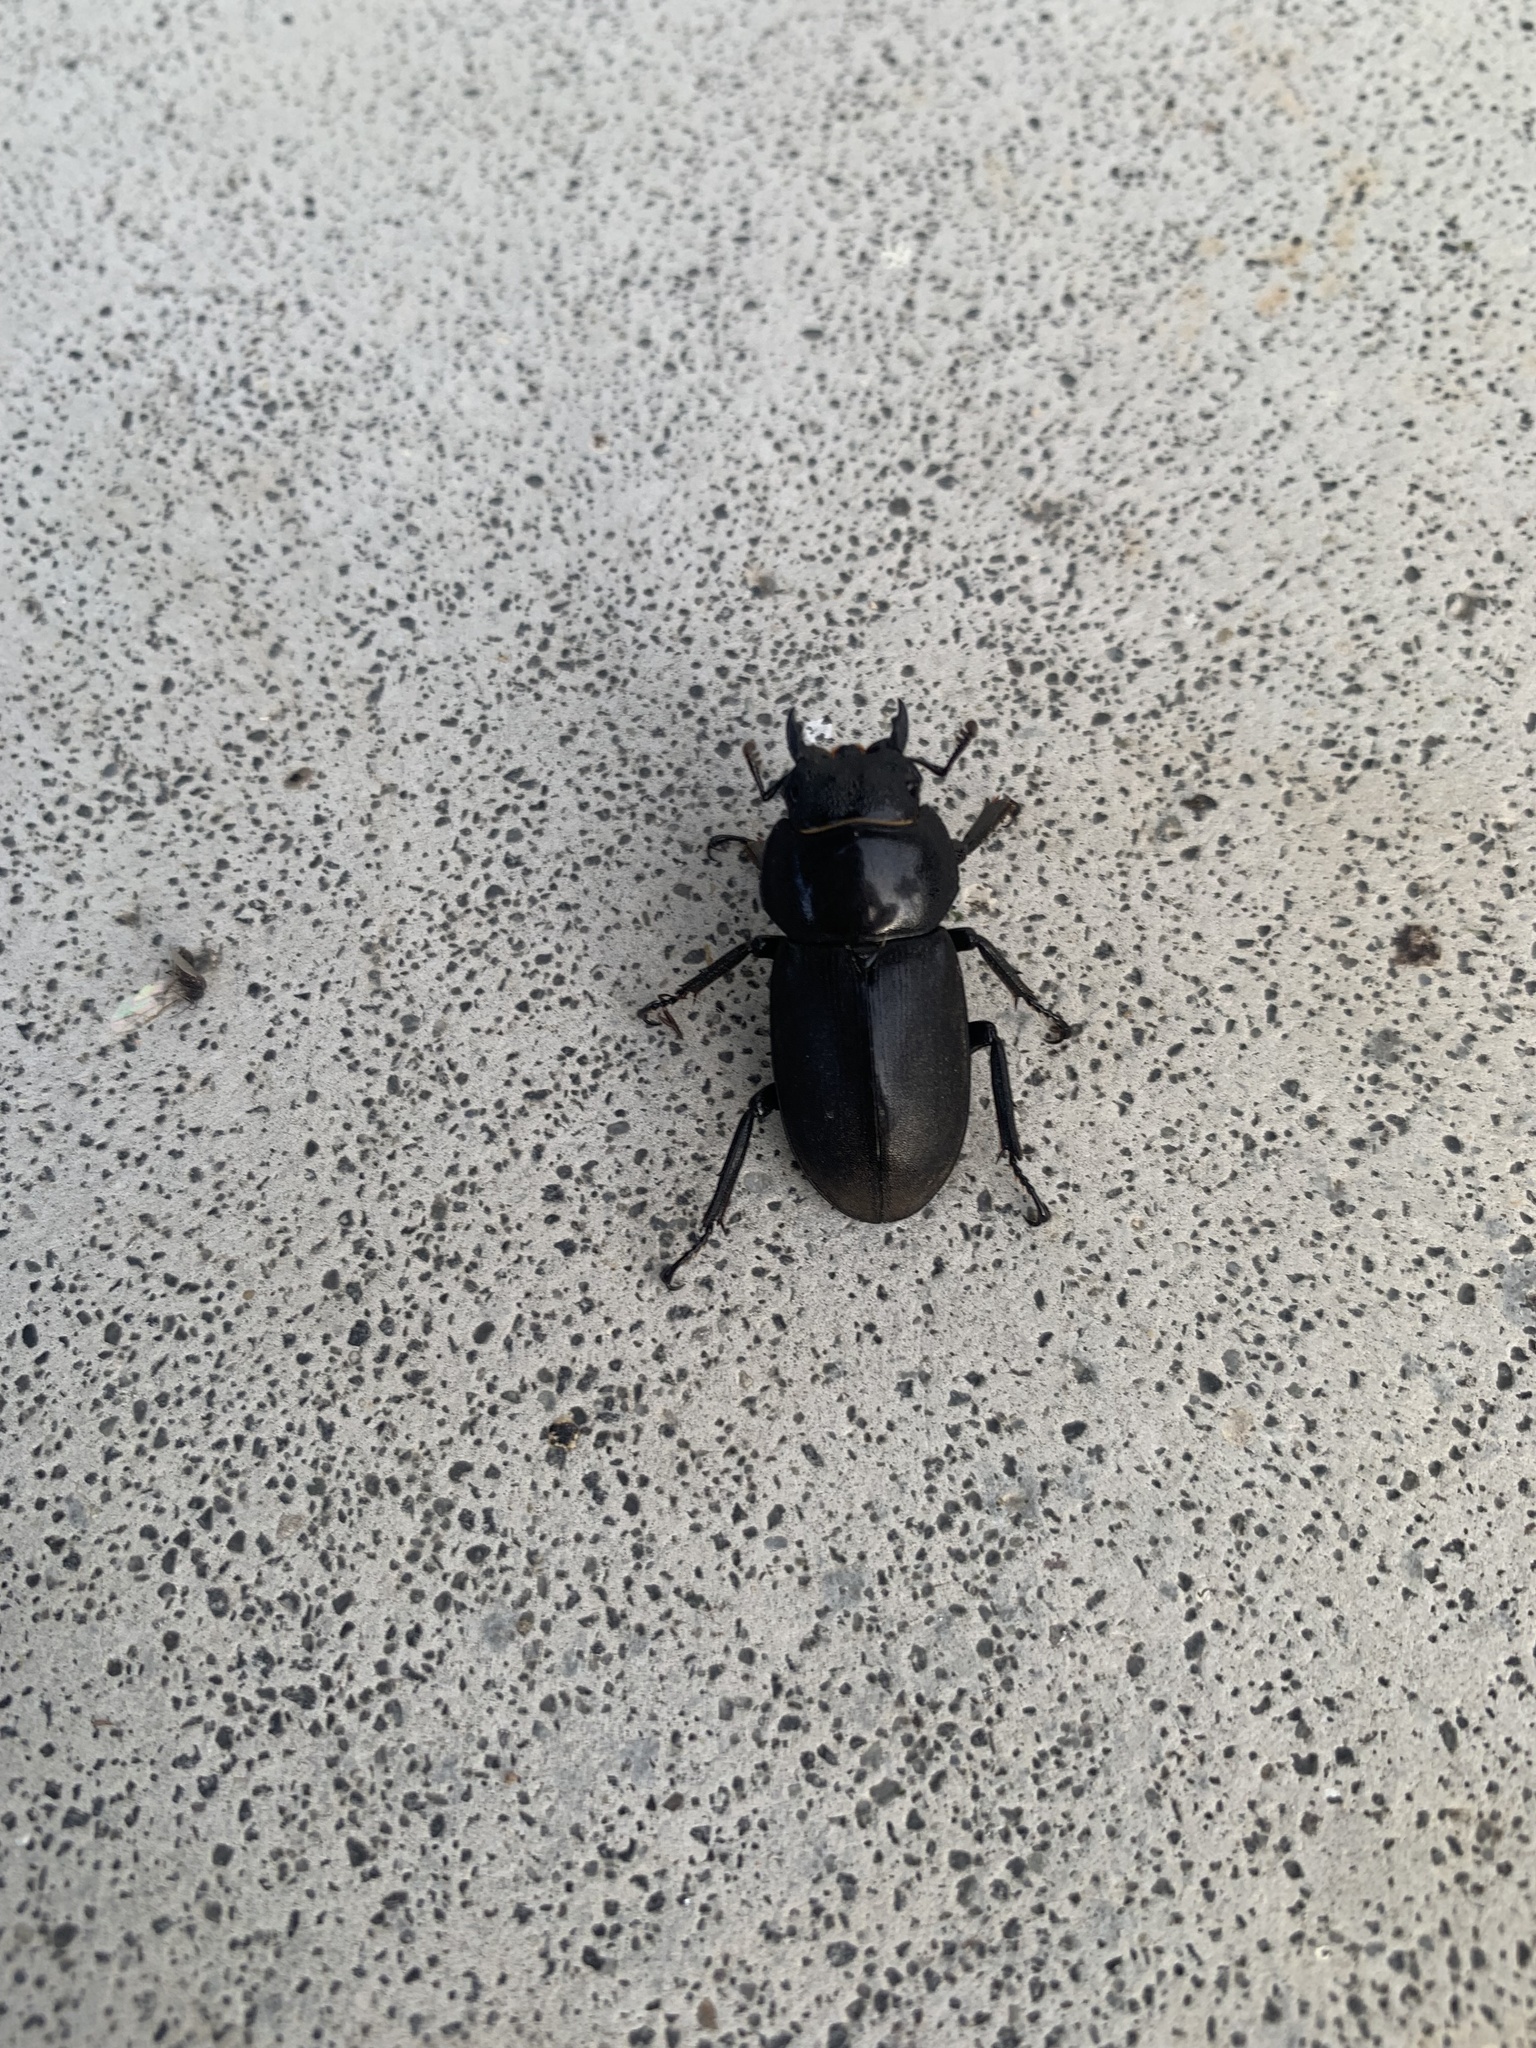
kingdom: Animalia
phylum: Arthropoda
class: Insecta
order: Coleoptera
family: Lucanidae
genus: Dorcus
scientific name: Dorcus rectus
